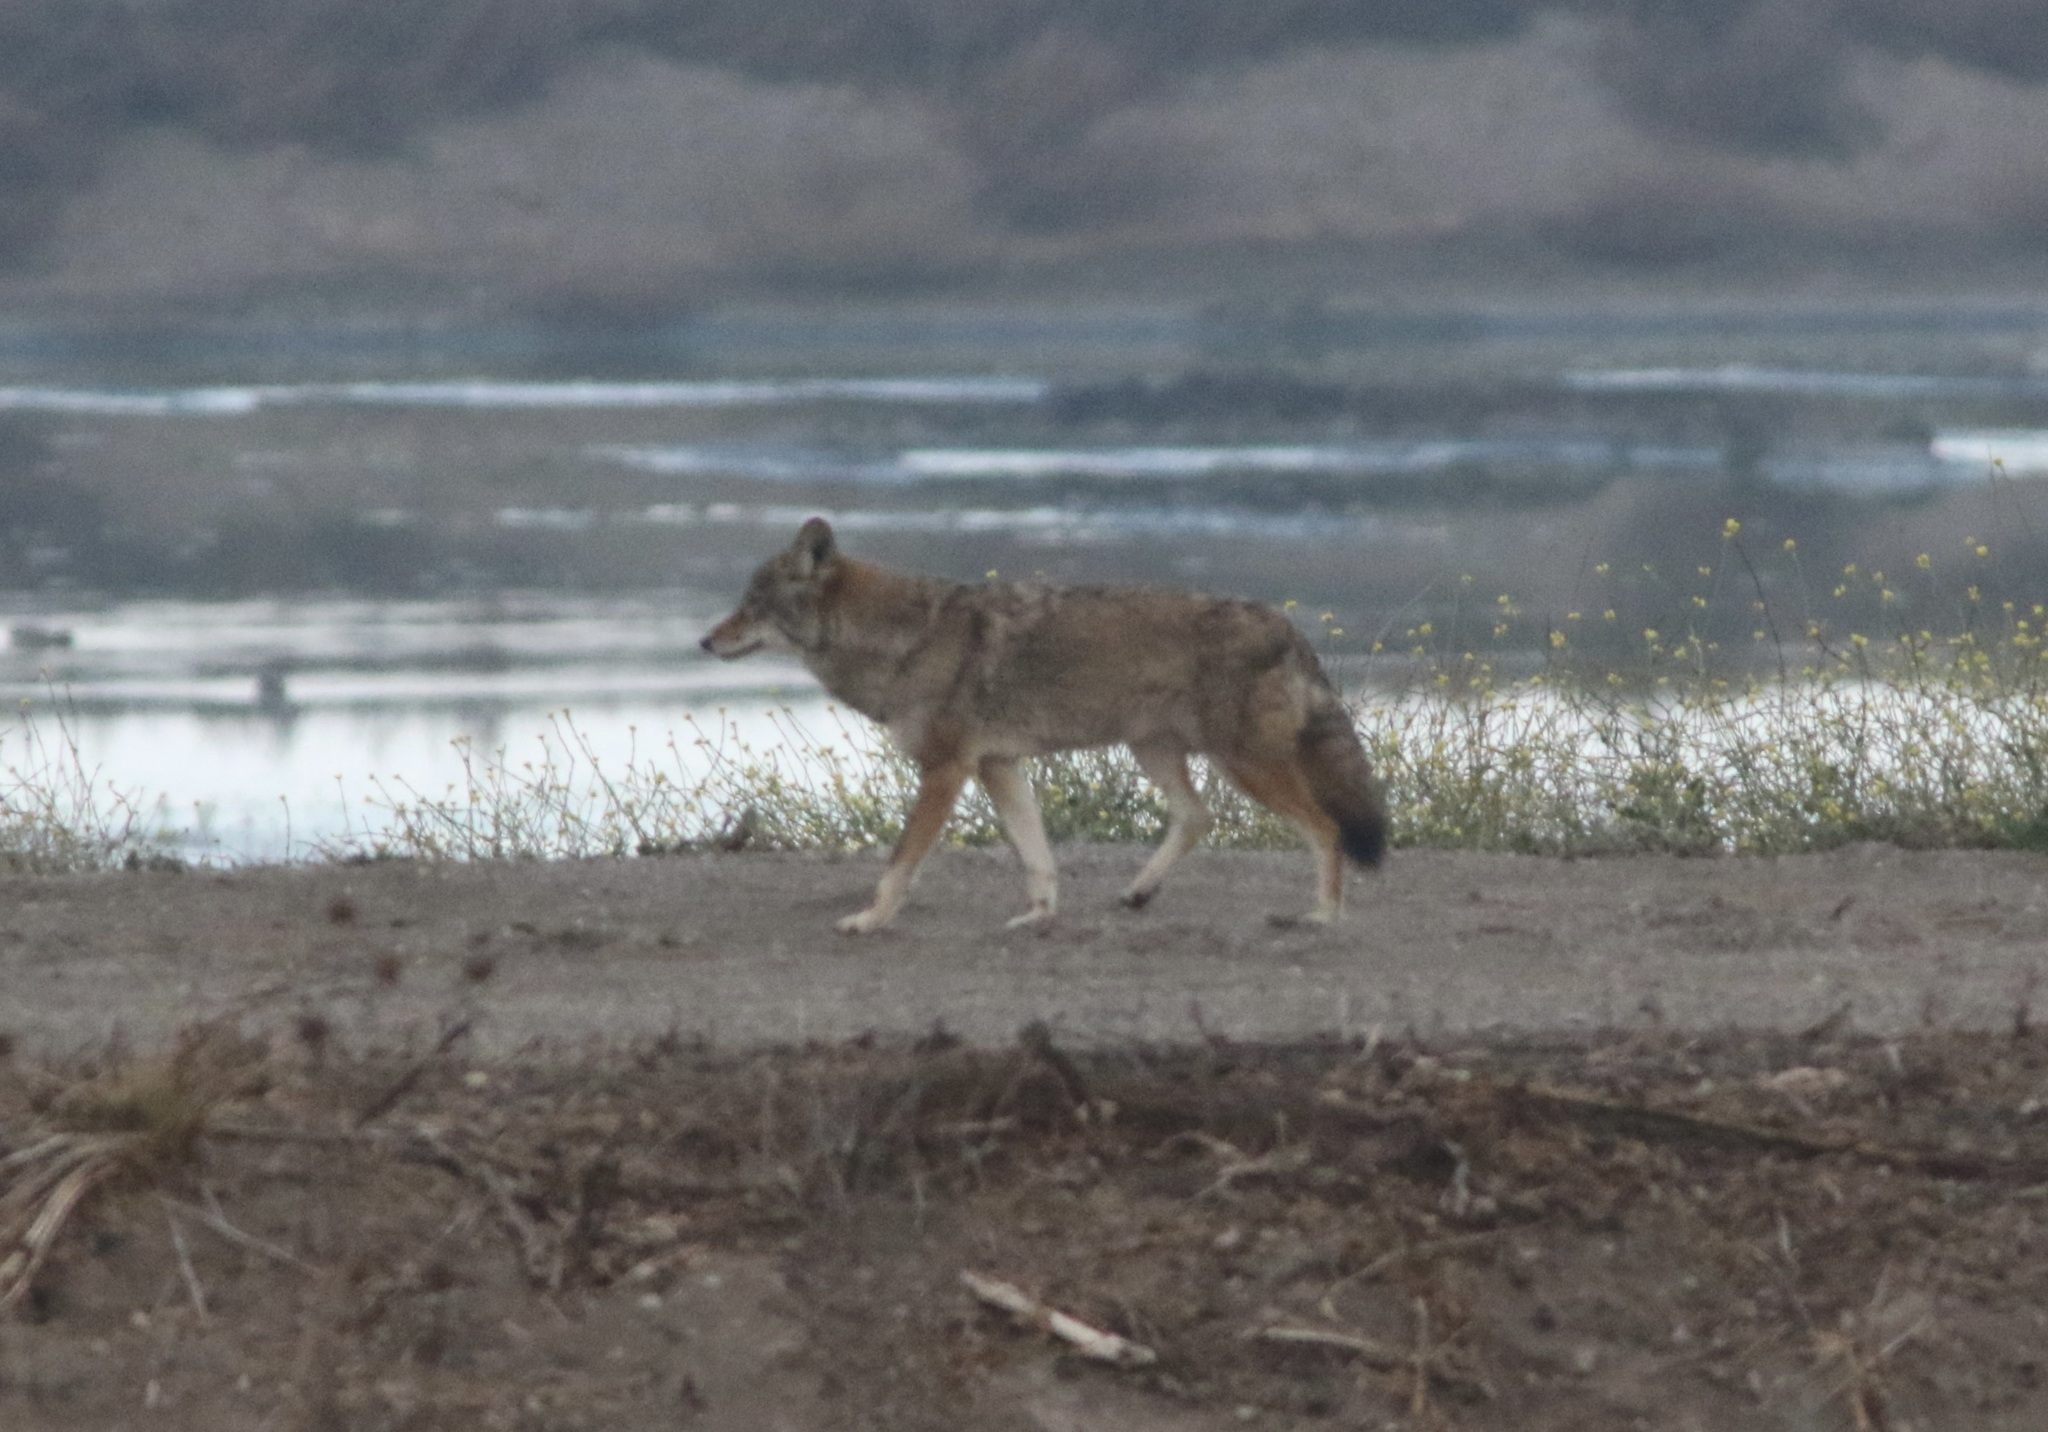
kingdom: Animalia
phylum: Chordata
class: Mammalia
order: Carnivora
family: Canidae
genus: Canis
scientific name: Canis latrans
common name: Coyote
